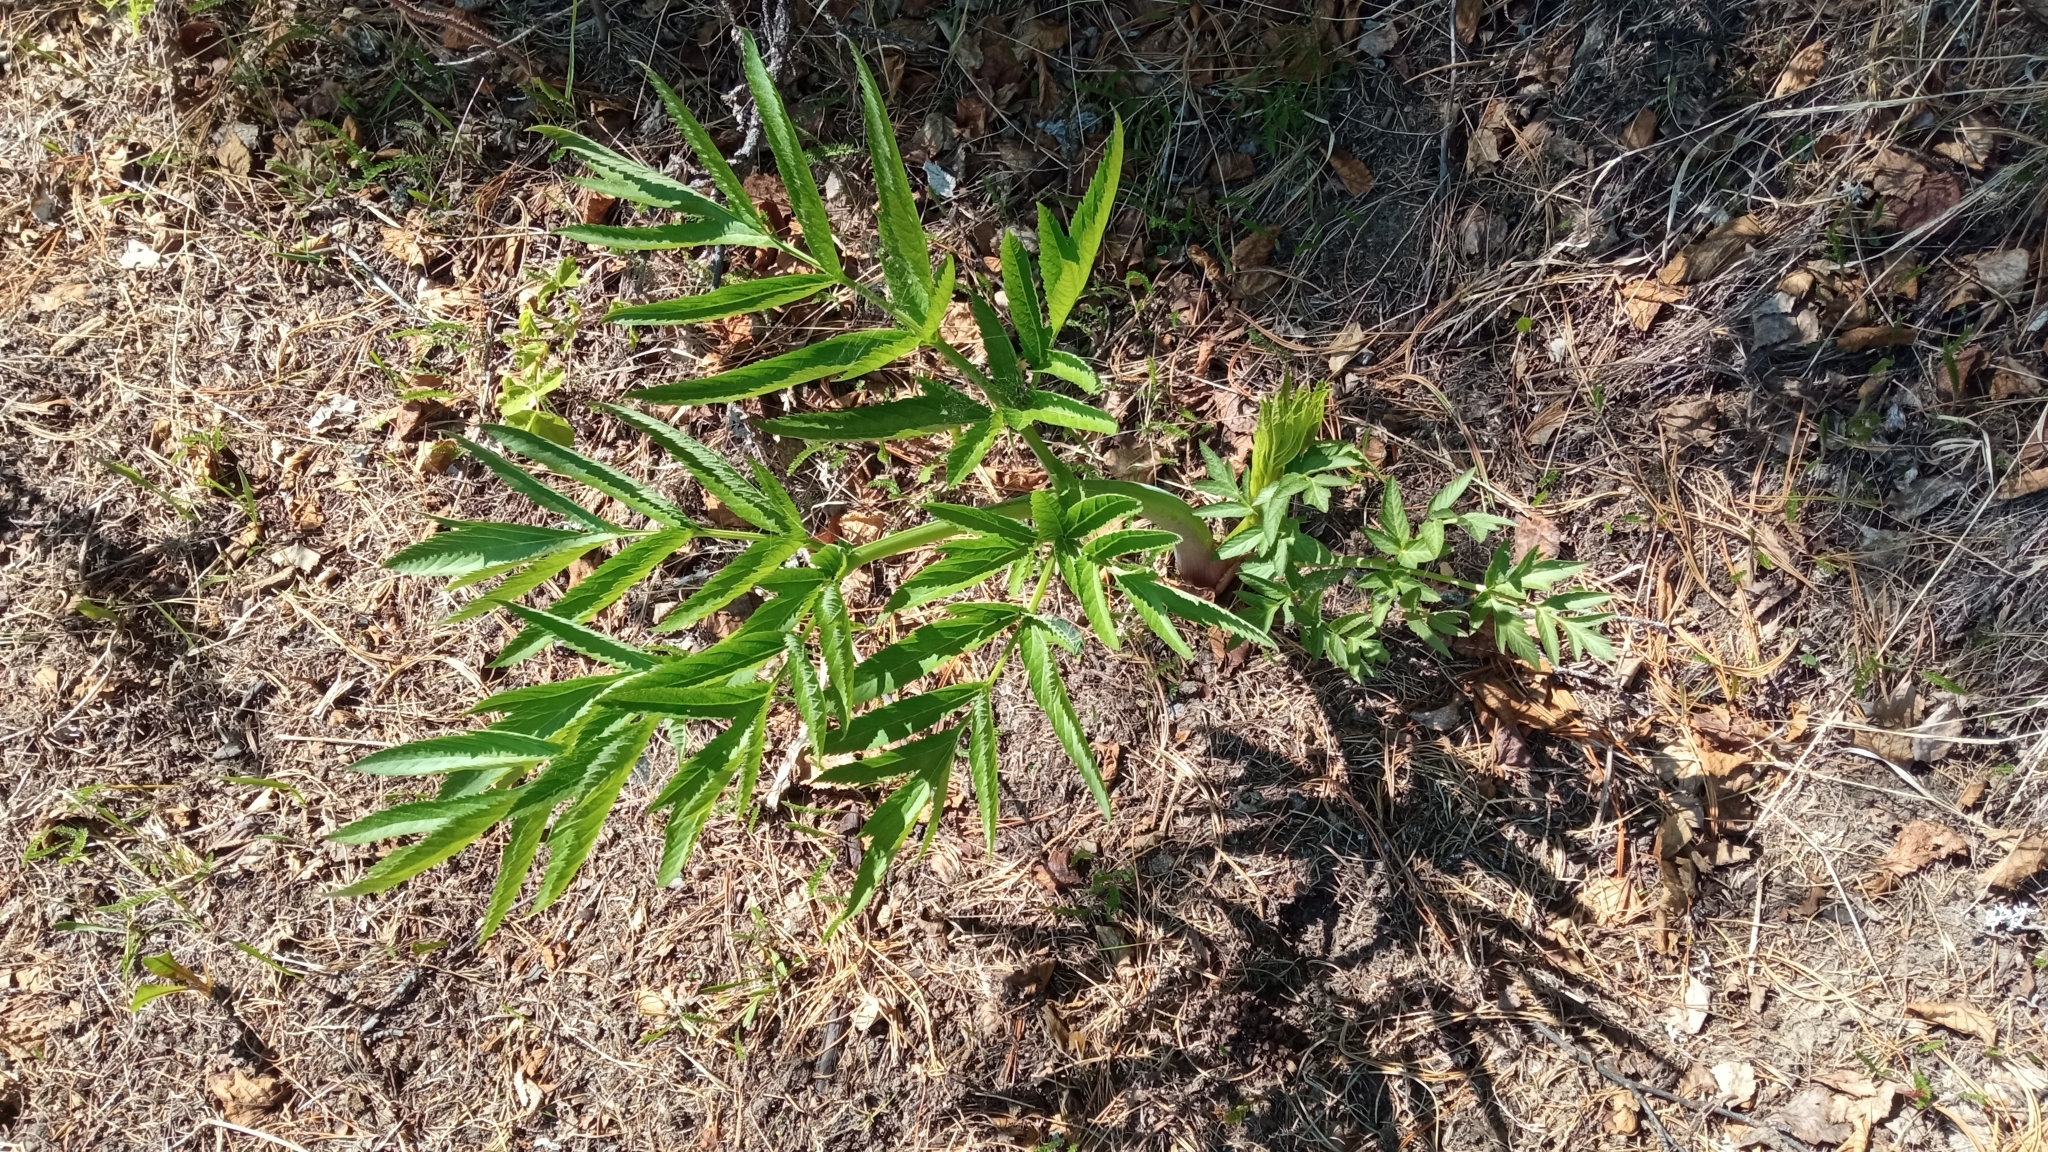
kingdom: Plantae
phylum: Tracheophyta
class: Magnoliopsida
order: Apiales
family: Apiaceae
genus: Angelica
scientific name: Angelica decurrens
